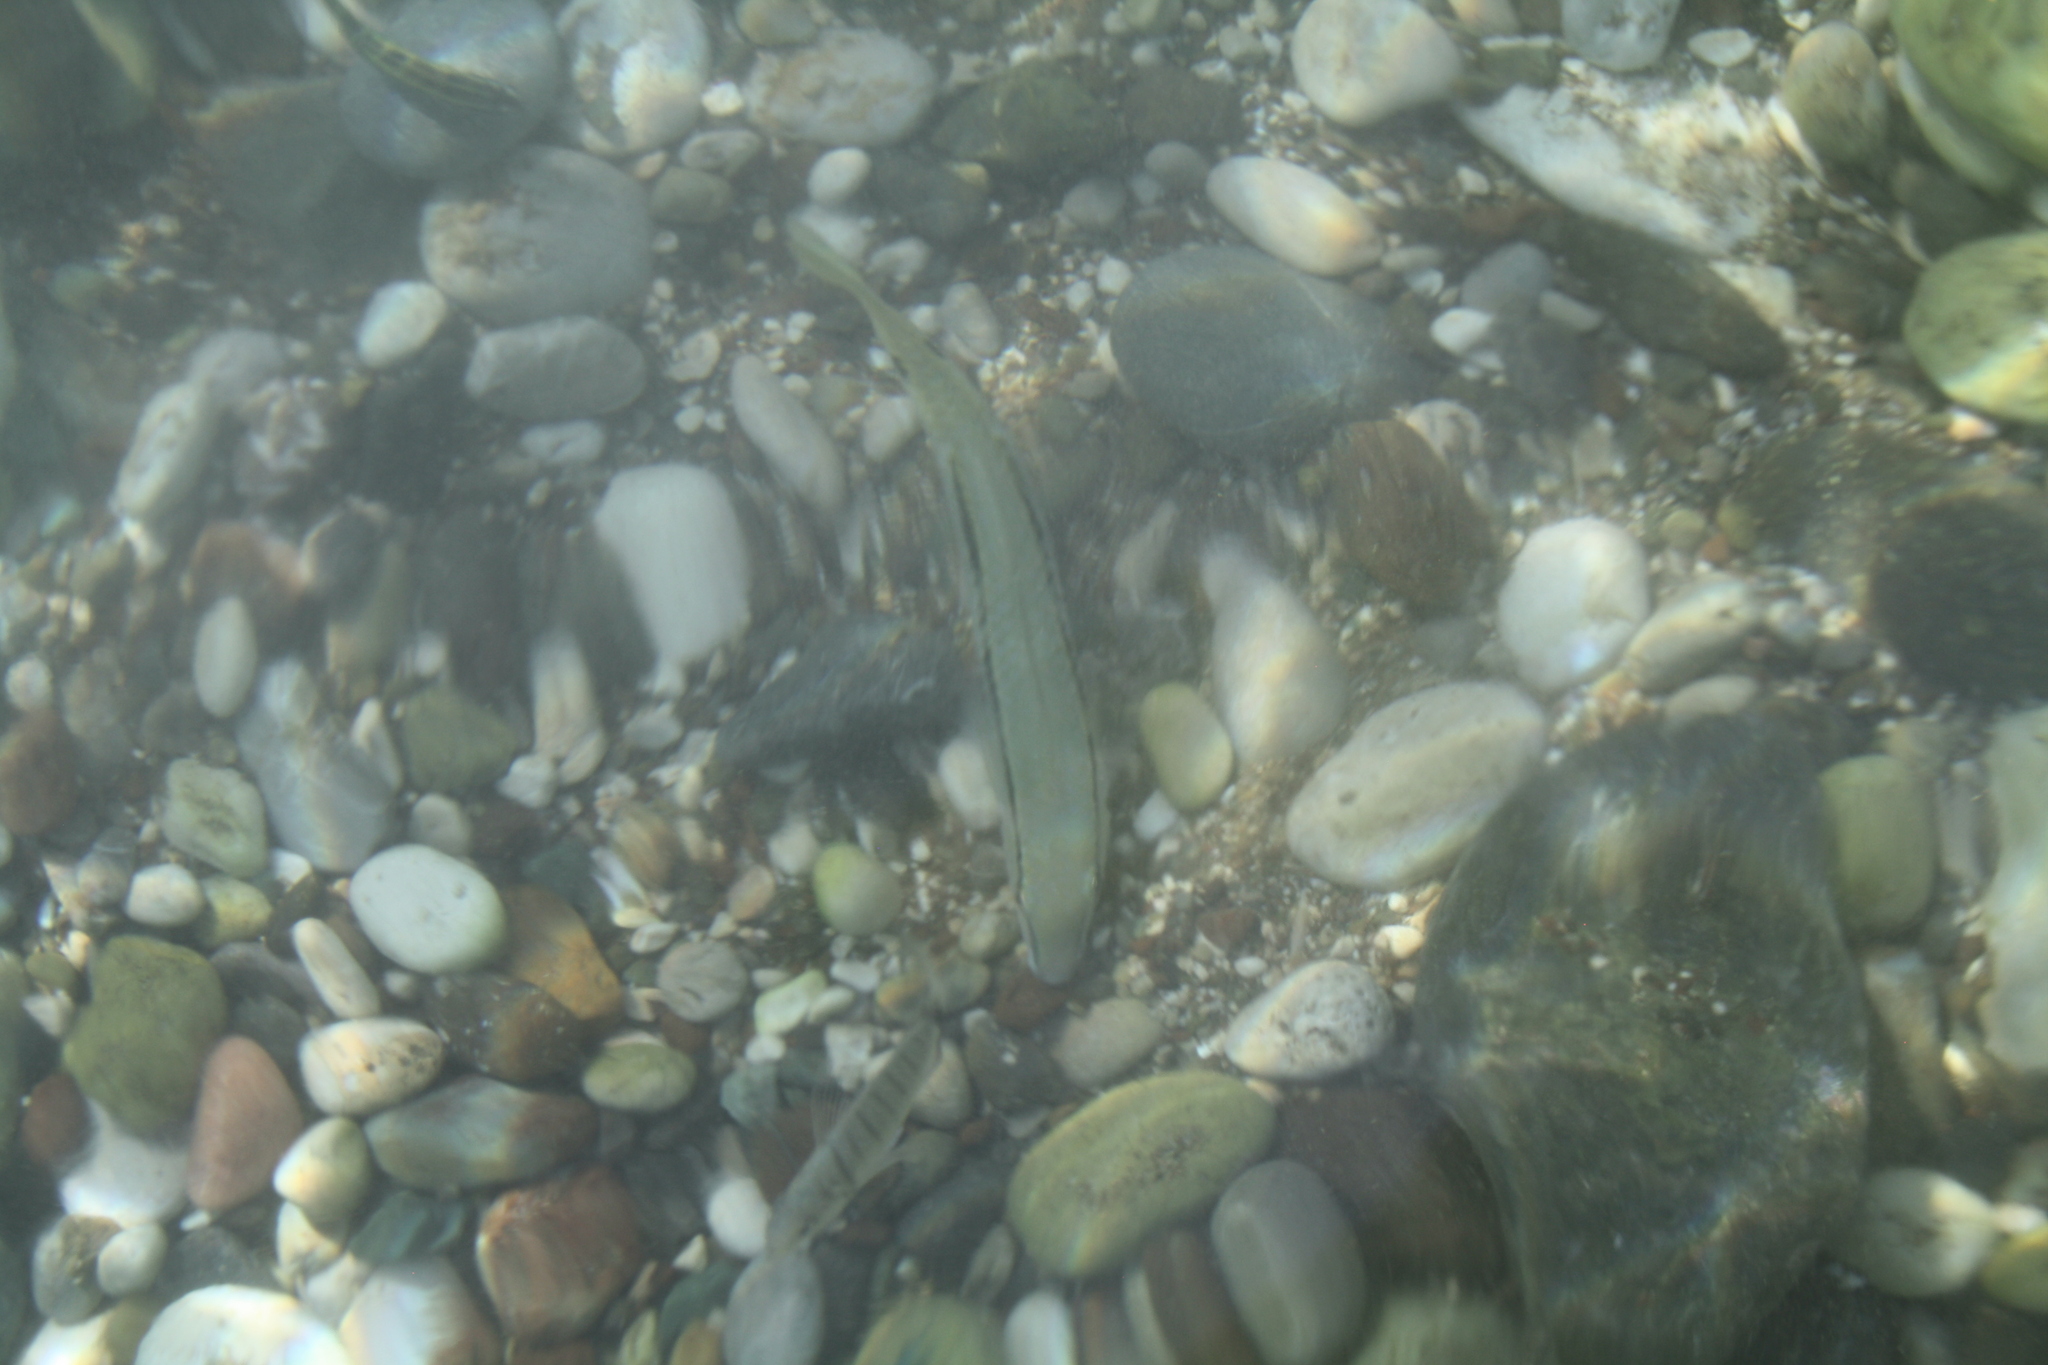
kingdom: Animalia
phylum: Chordata
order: Perciformes
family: Mullidae
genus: Parupeneus
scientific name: Parupeneus forsskali
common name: Red sea goatfish
